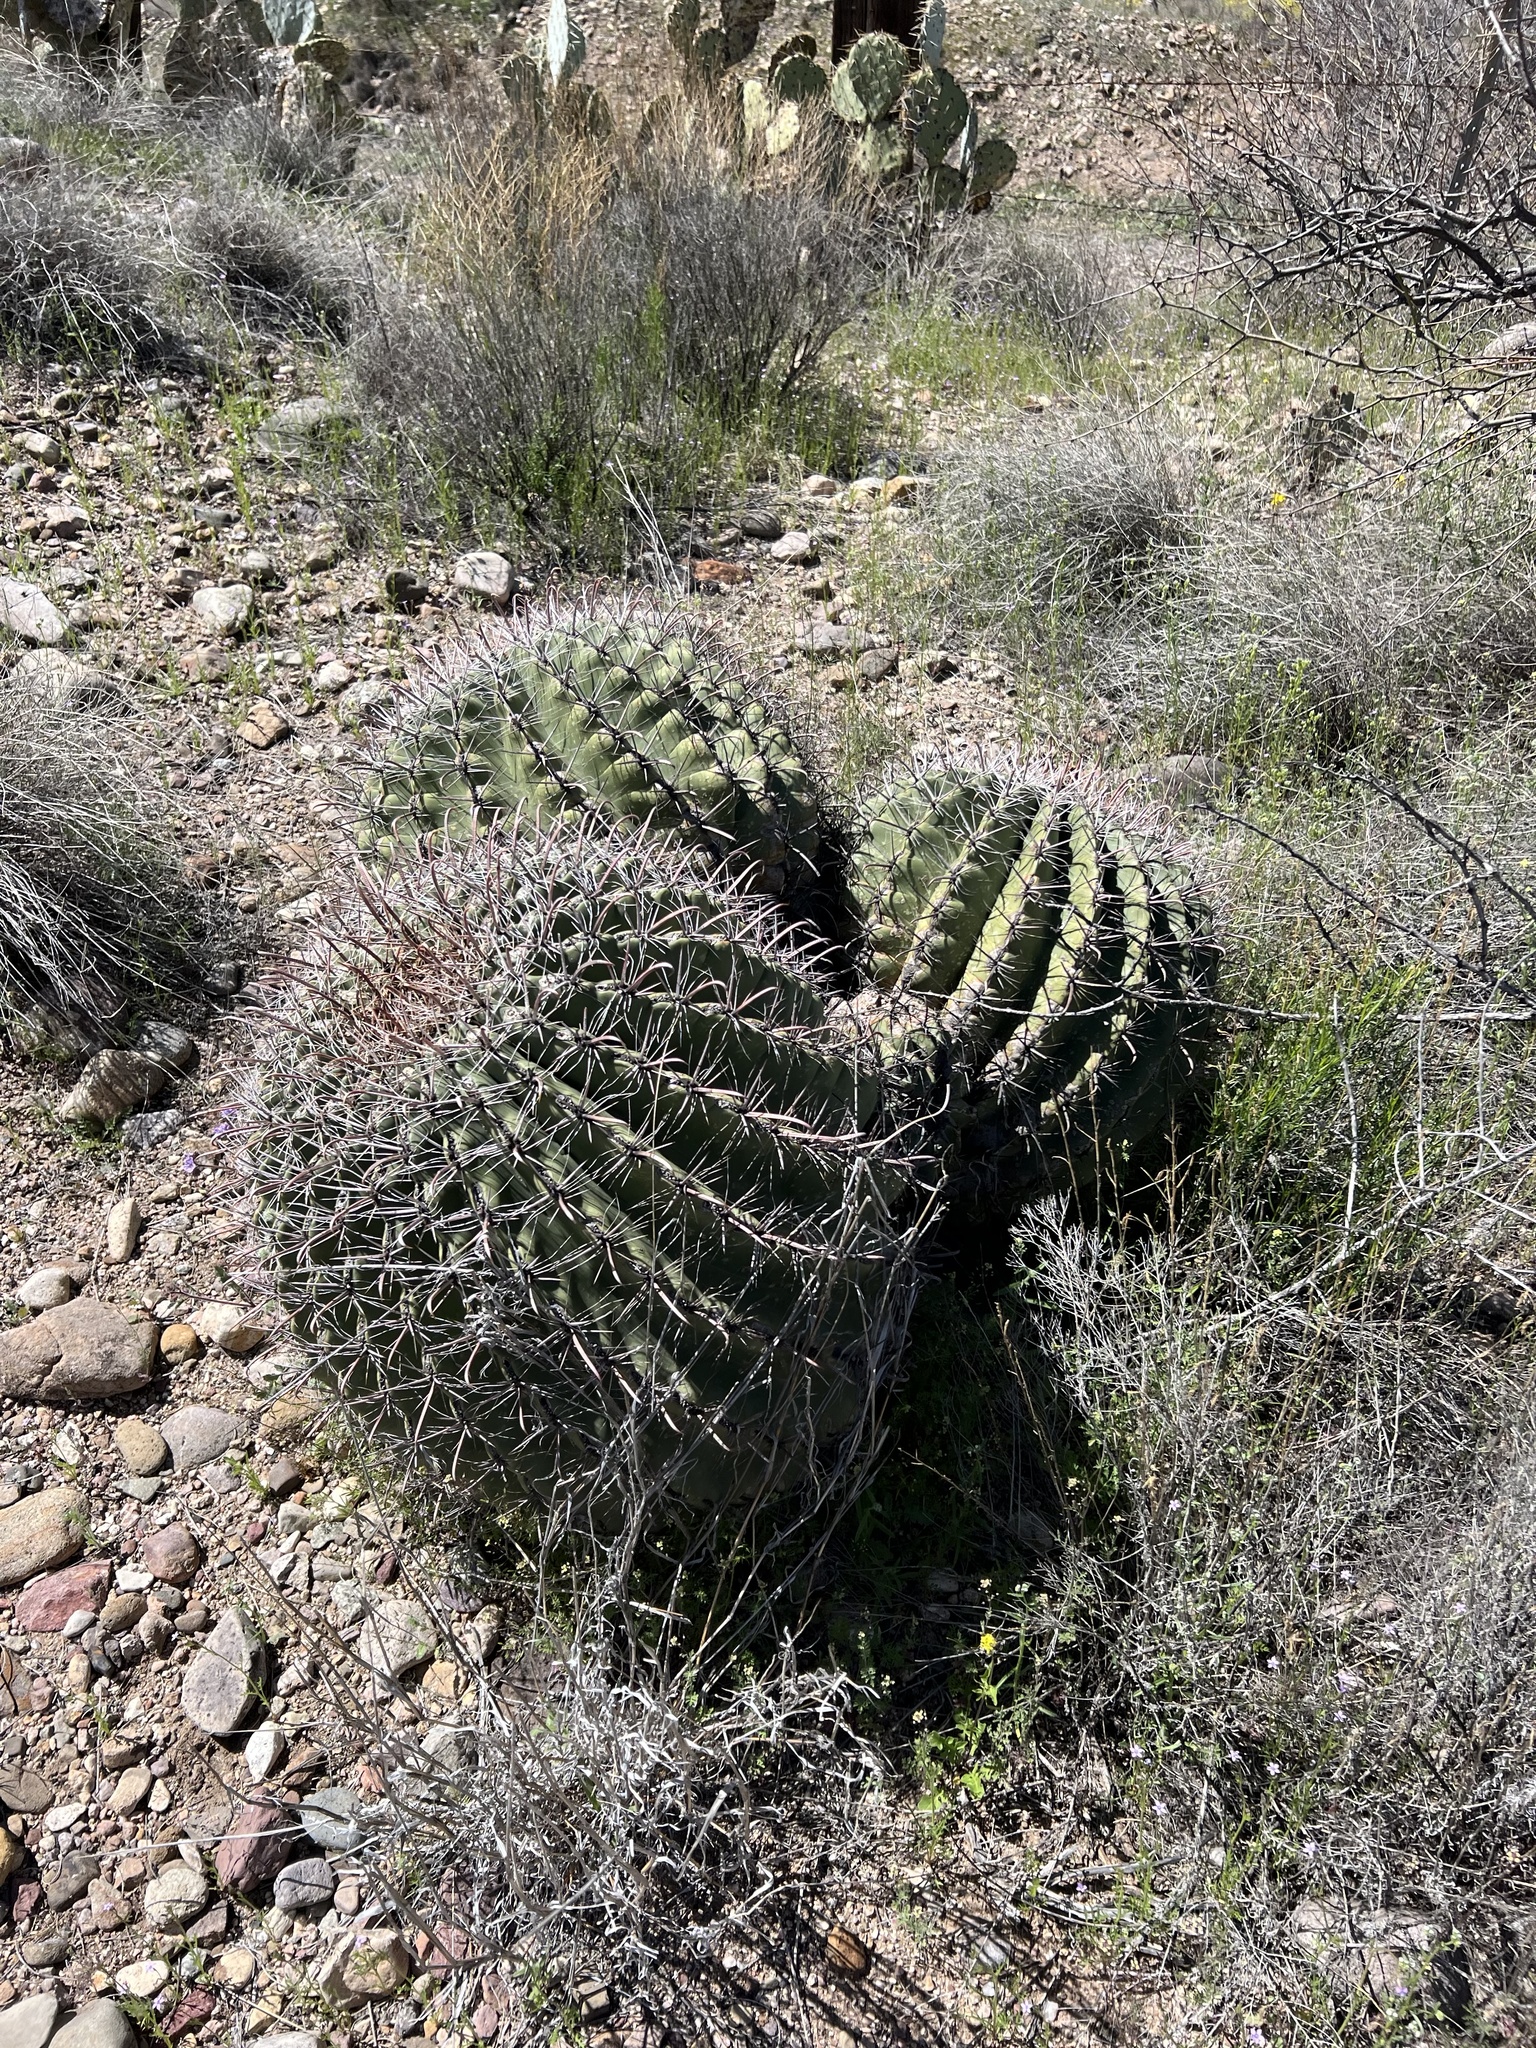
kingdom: Plantae
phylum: Tracheophyta
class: Magnoliopsida
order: Caryophyllales
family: Cactaceae
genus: Ferocactus
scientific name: Ferocactus wislizeni
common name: Candy barrel cactus
